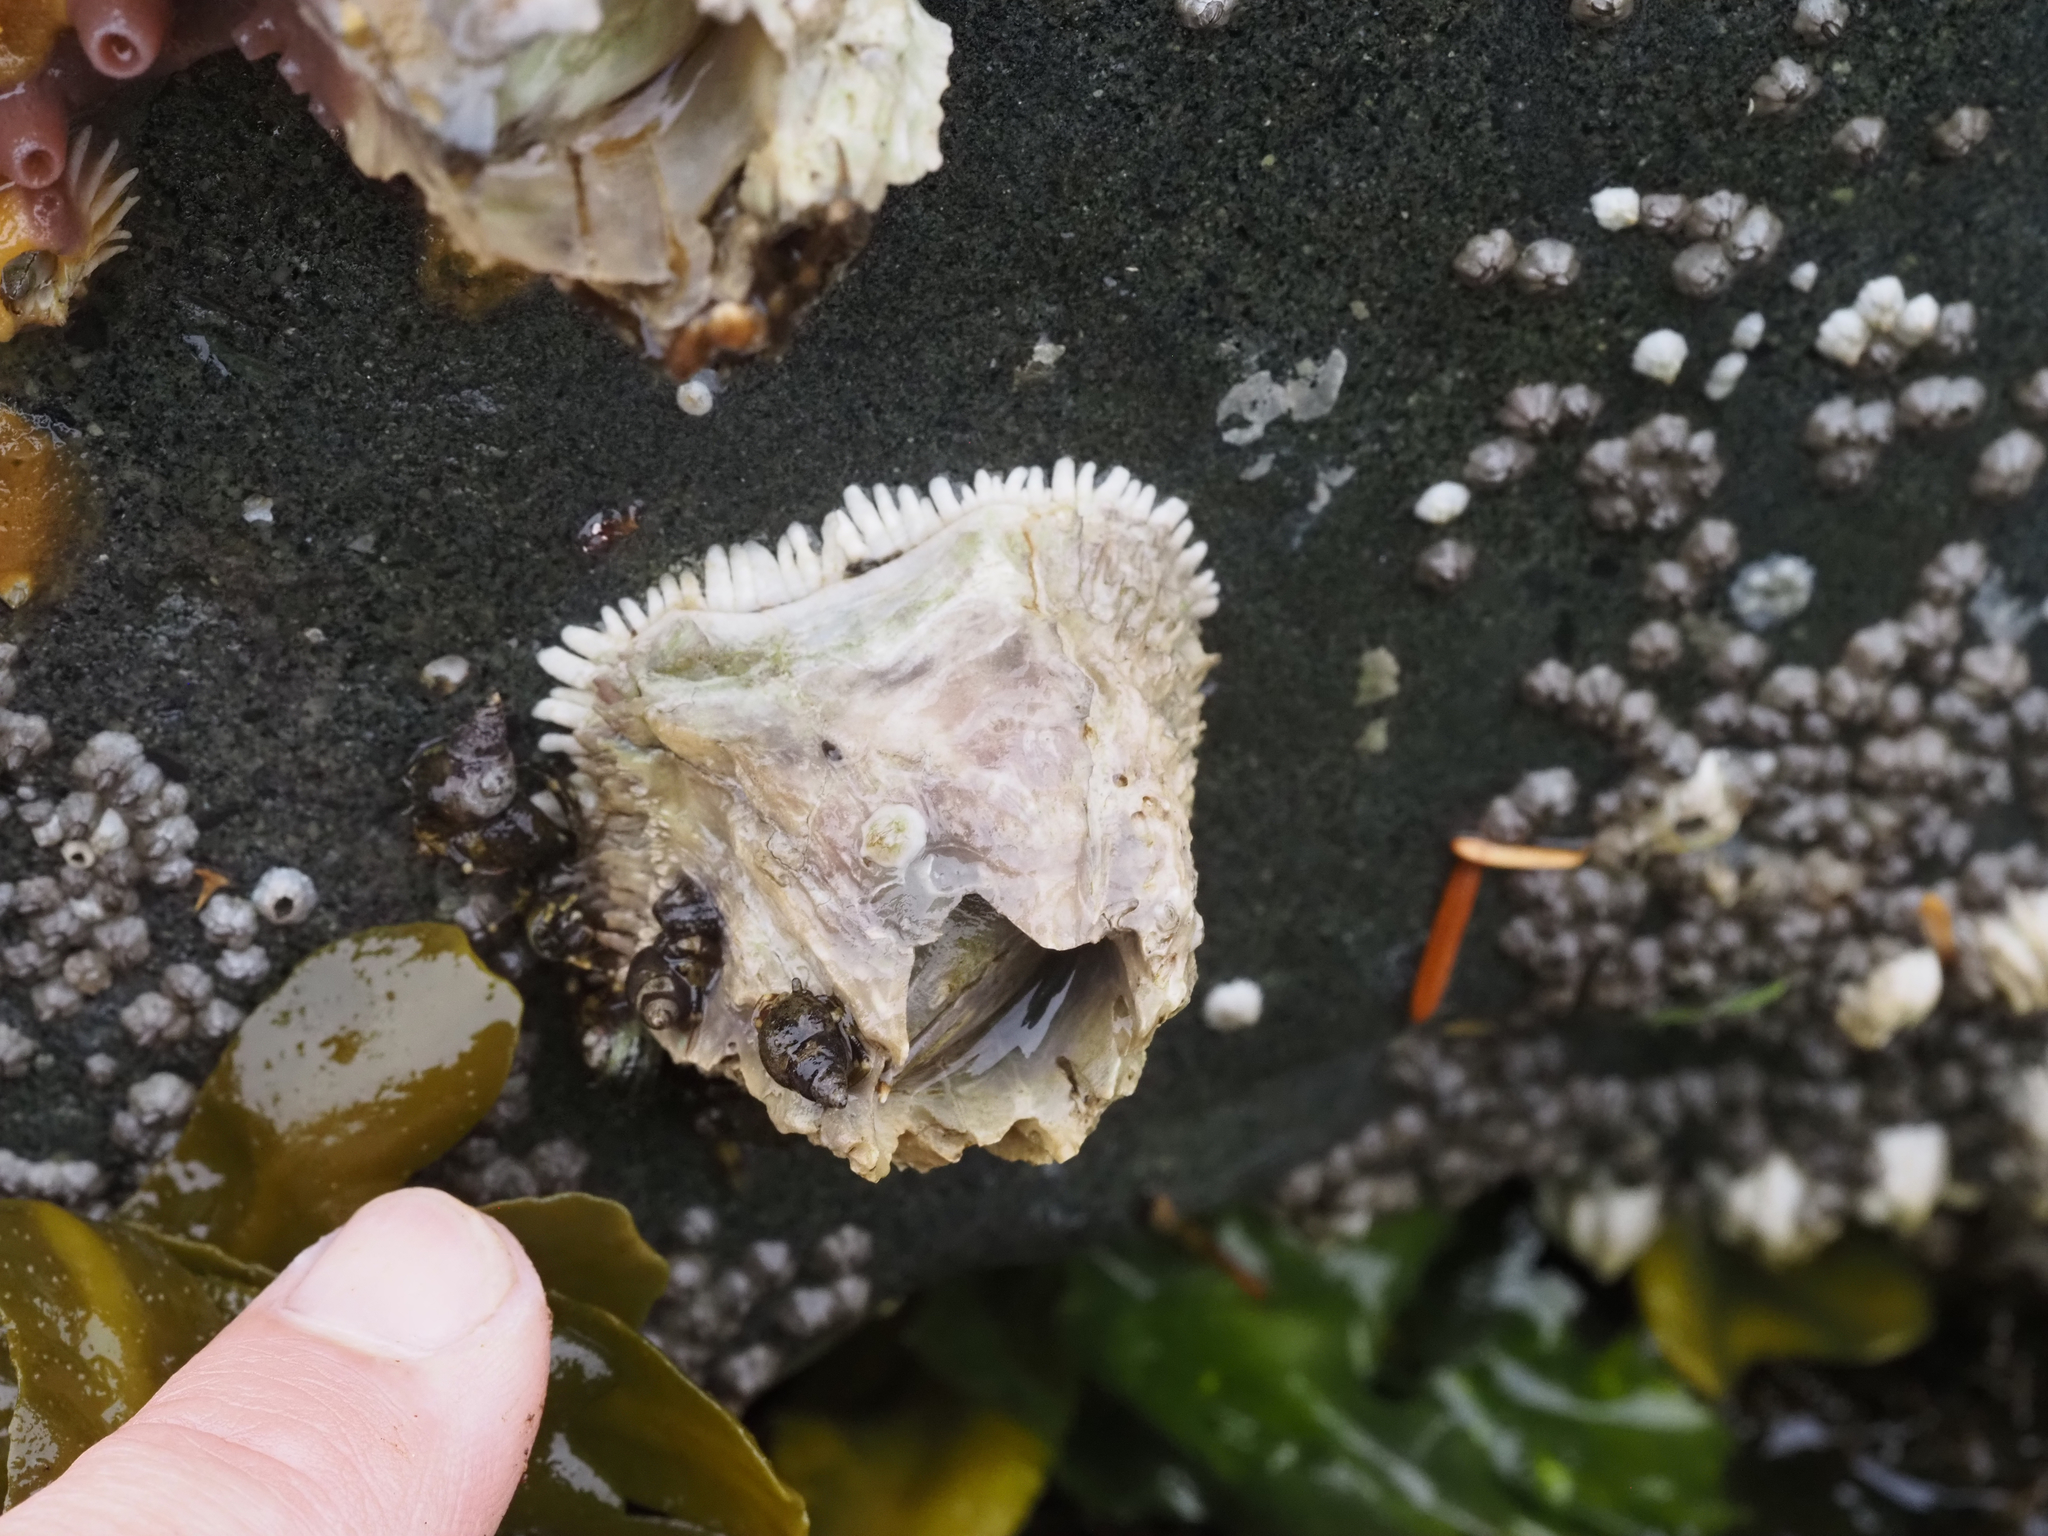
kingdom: Animalia
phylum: Arthropoda
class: Maxillopoda
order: Sessilia
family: Archaeobalanidae
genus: Semibalanus
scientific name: Semibalanus cariosus
